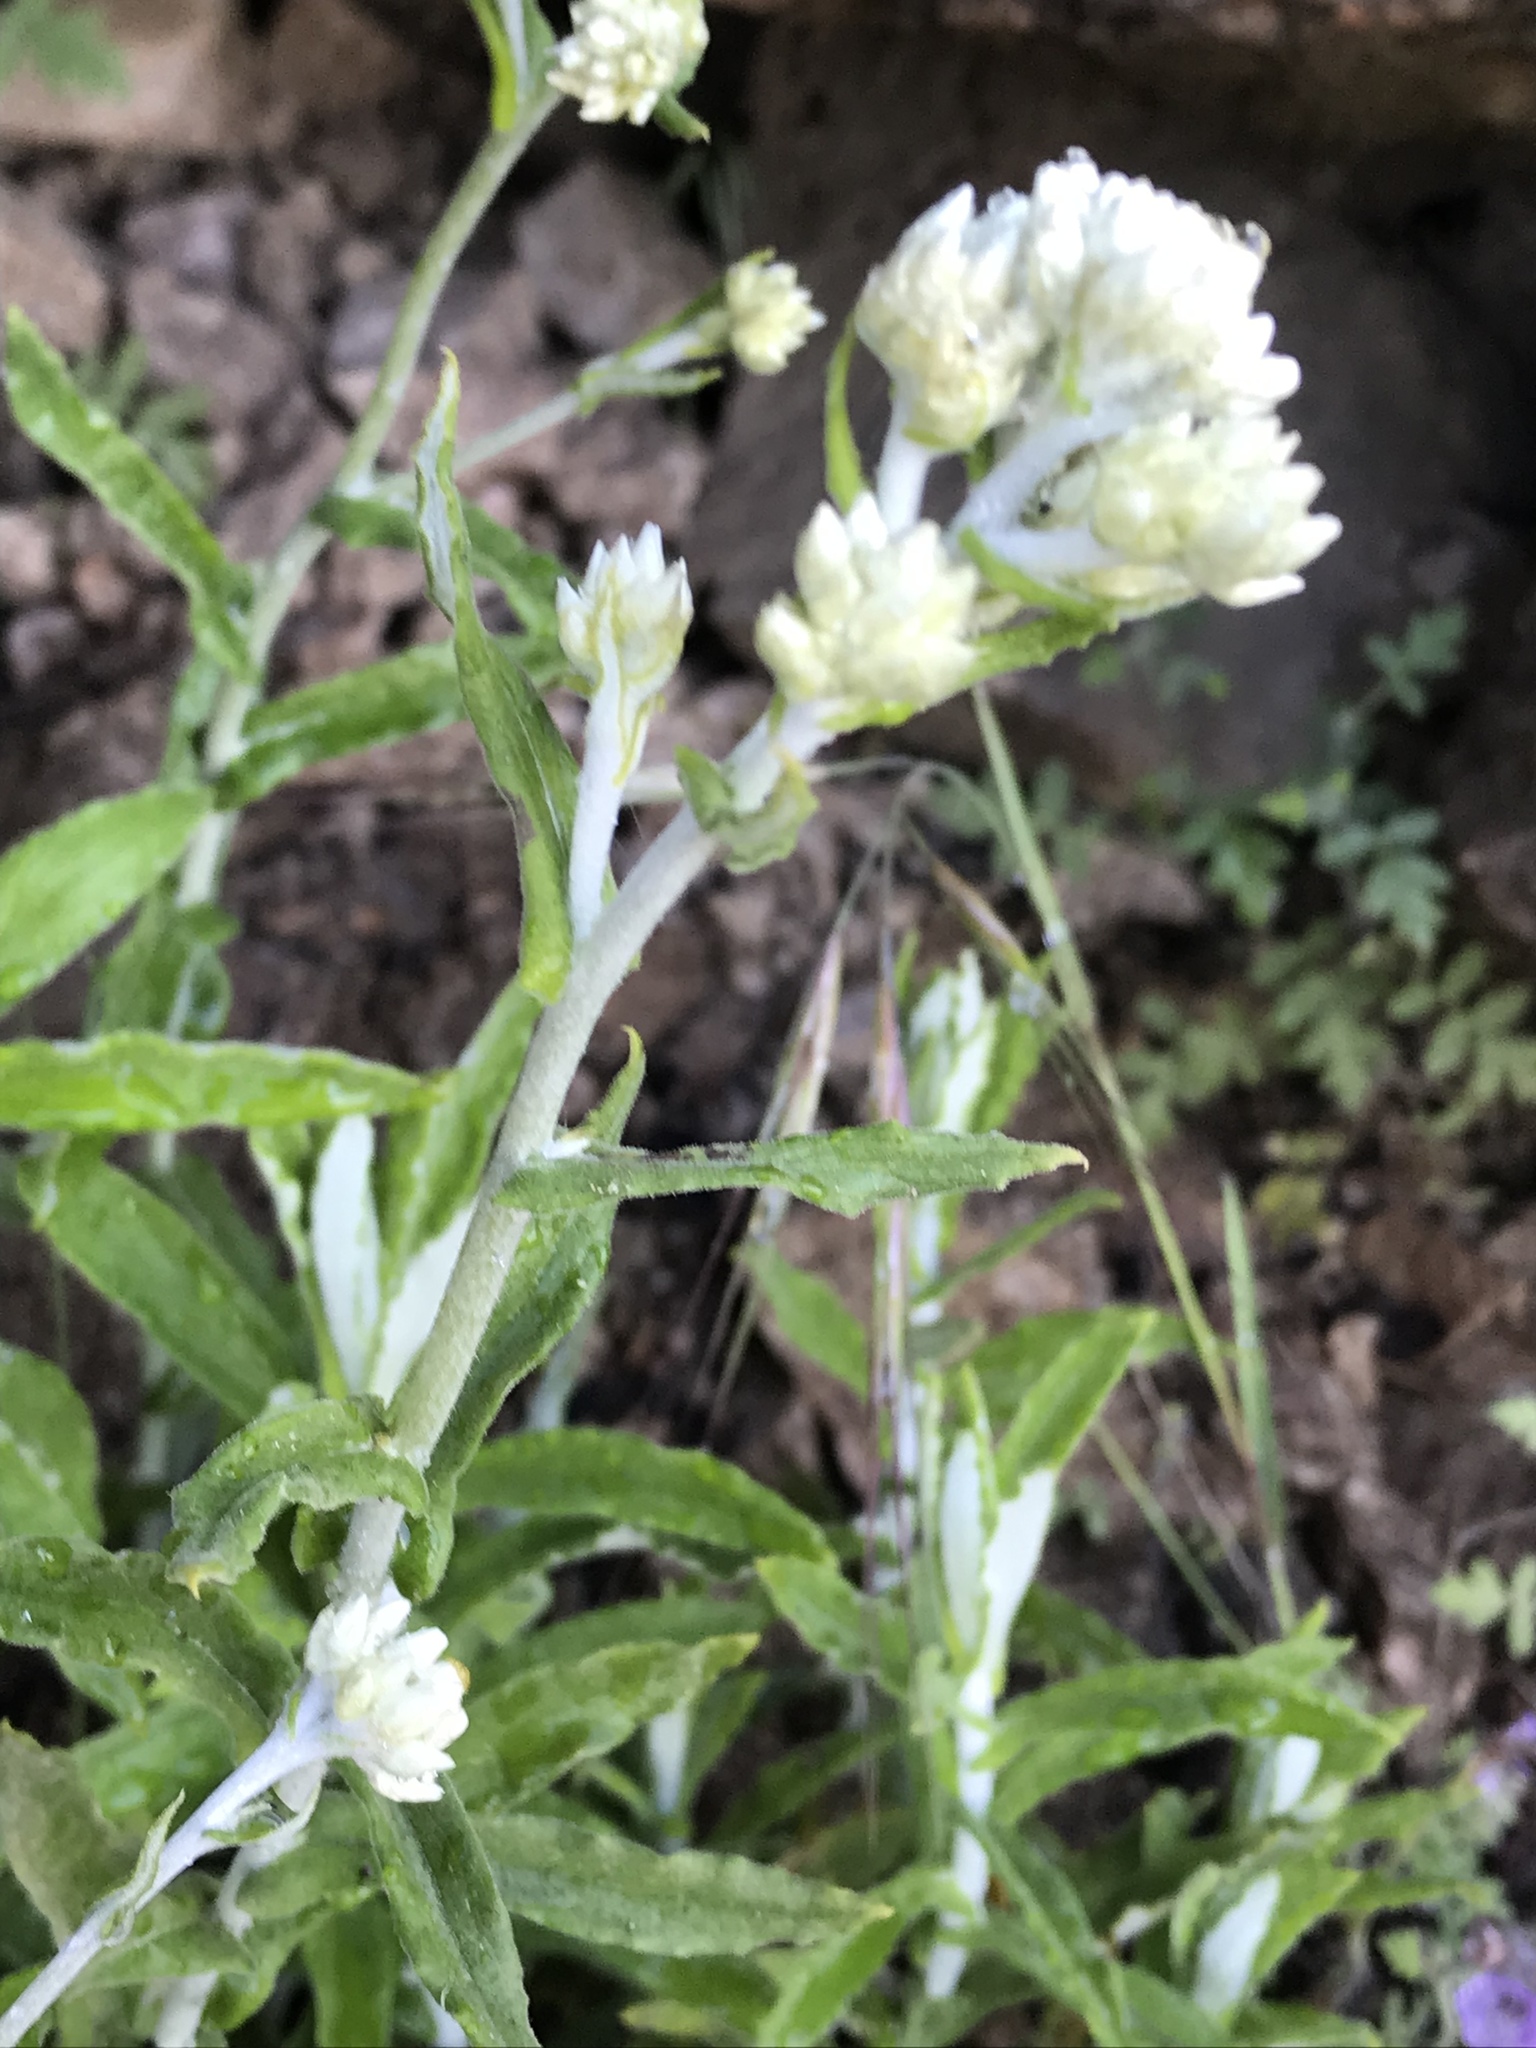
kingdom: Plantae
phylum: Tracheophyta
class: Magnoliopsida
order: Asterales
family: Asteraceae
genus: Pseudognaphalium
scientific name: Pseudognaphalium biolettii
